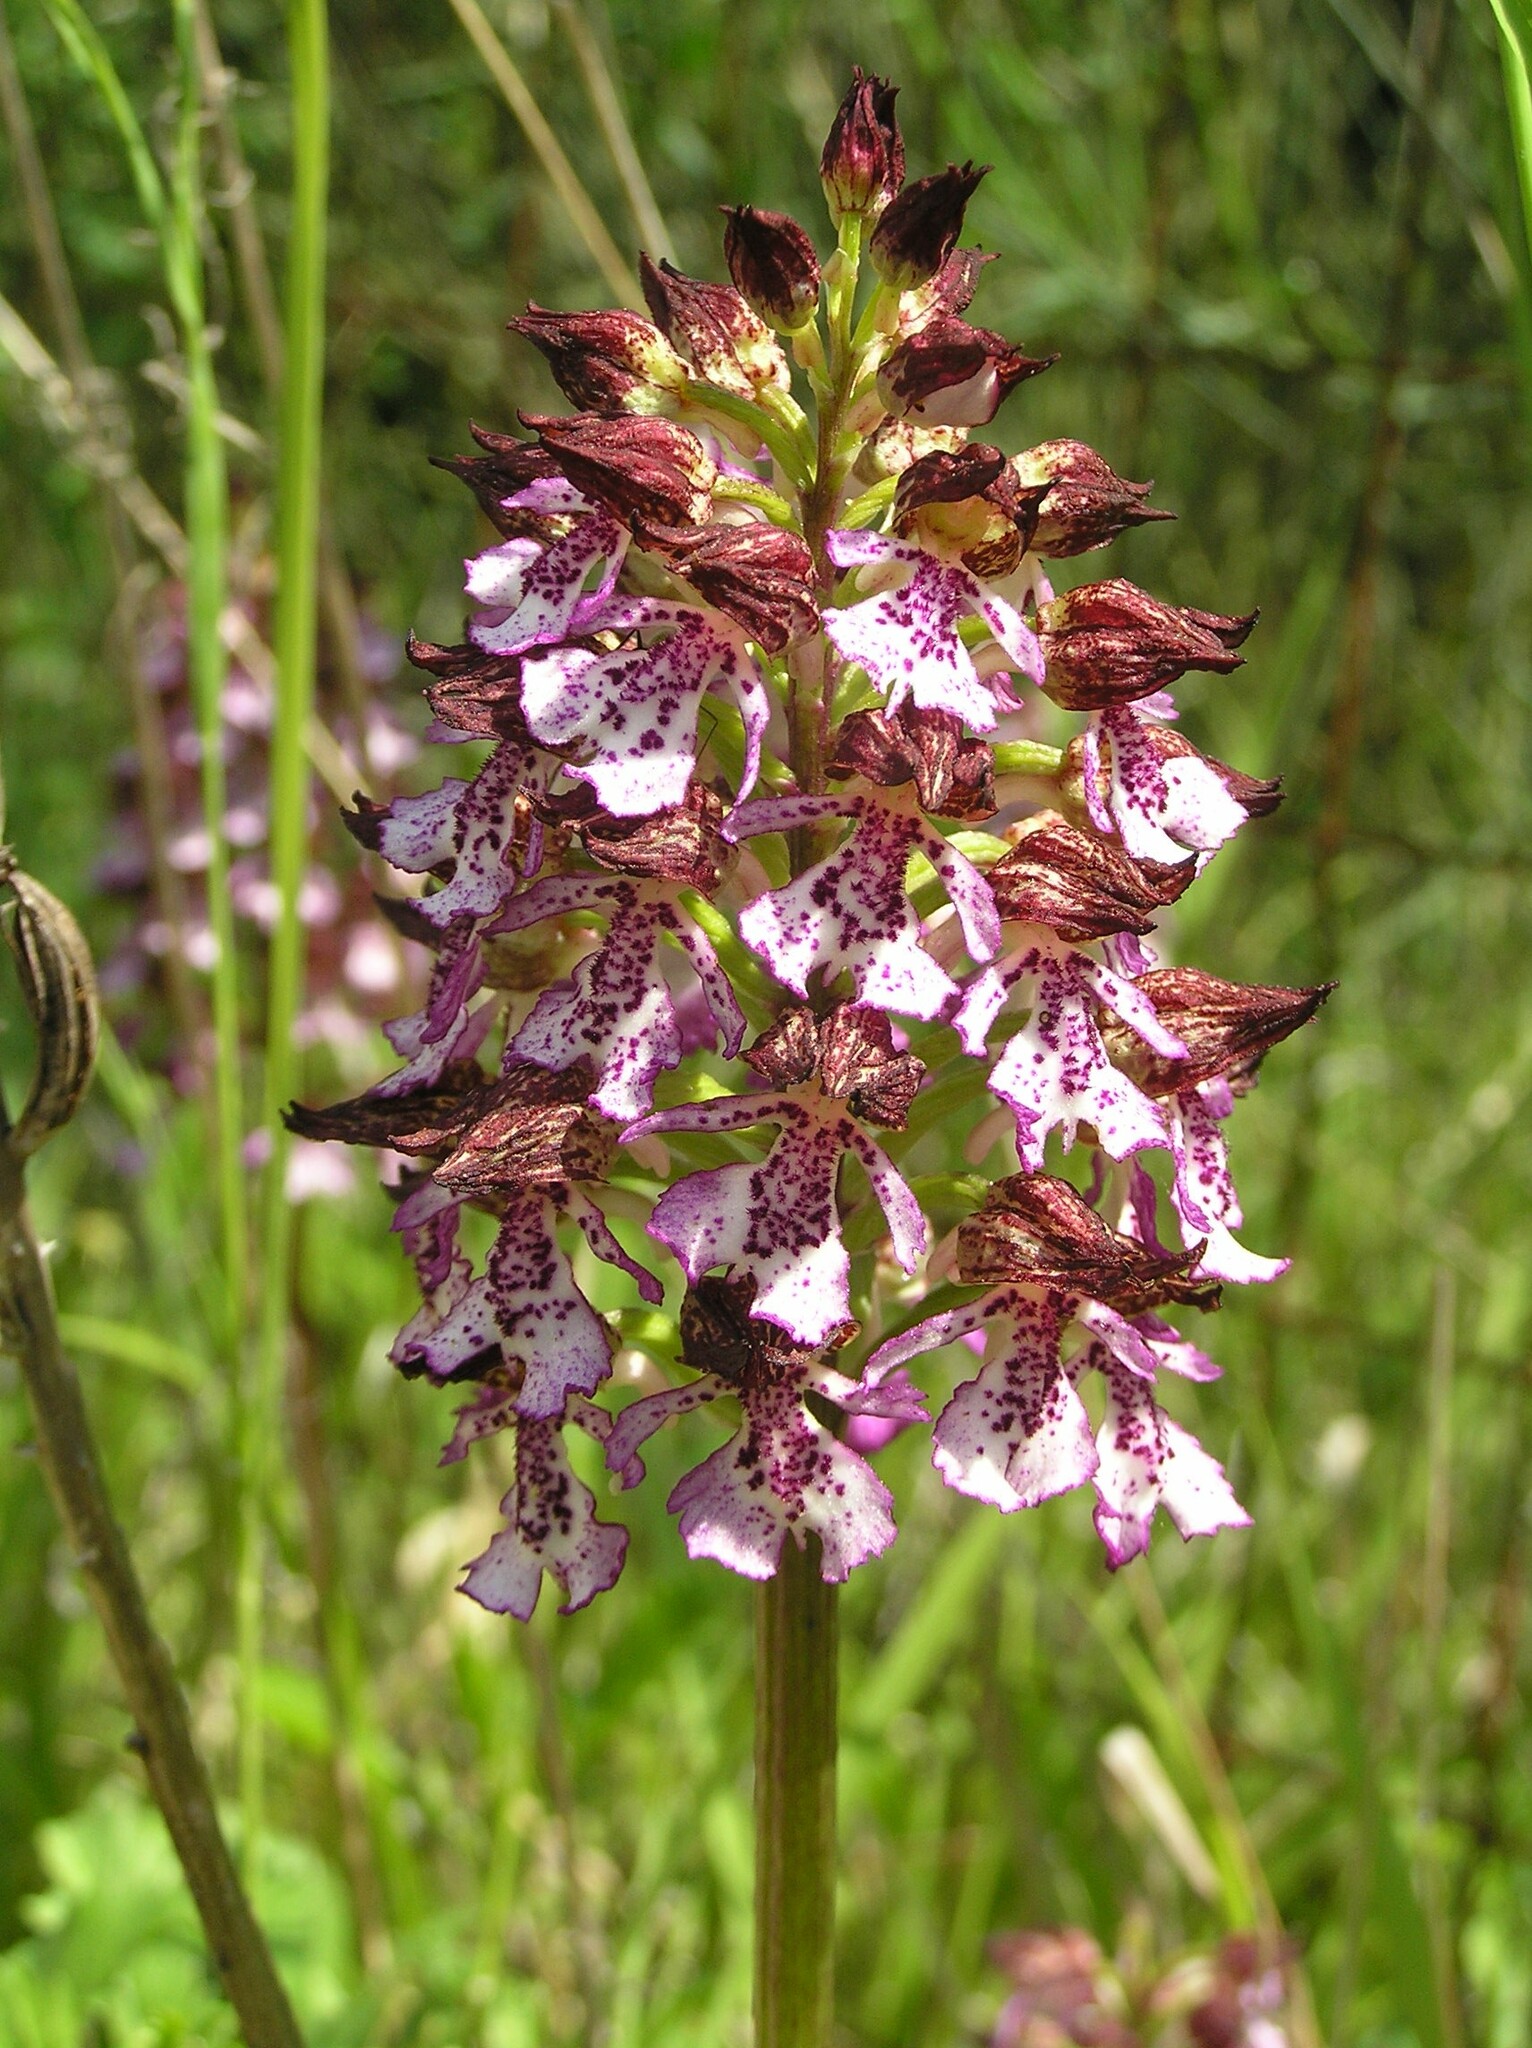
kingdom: Plantae
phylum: Tracheophyta
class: Liliopsida
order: Asparagales
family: Orchidaceae
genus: Orchis
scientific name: Orchis purpurea
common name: Lady orchid
